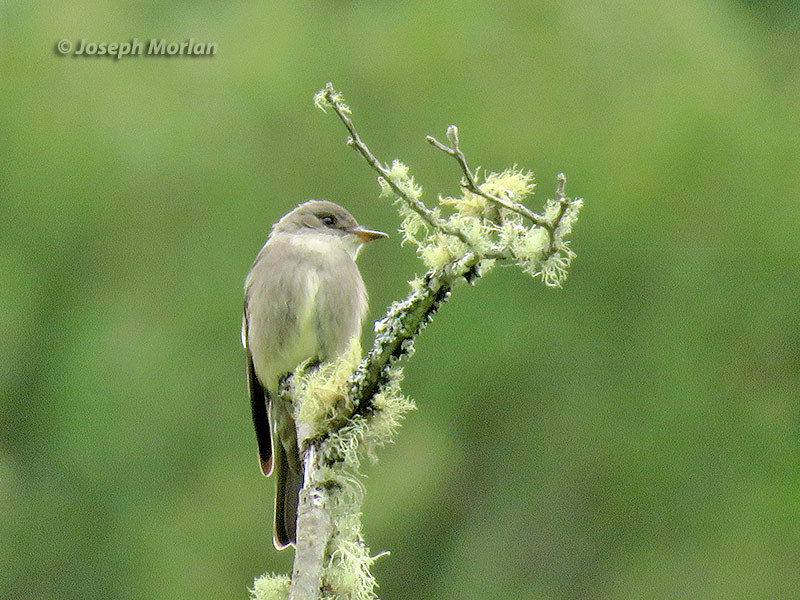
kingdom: Animalia
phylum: Chordata
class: Aves
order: Passeriformes
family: Tyrannidae
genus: Contopus
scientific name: Contopus sordidulus
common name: Western wood-pewee
